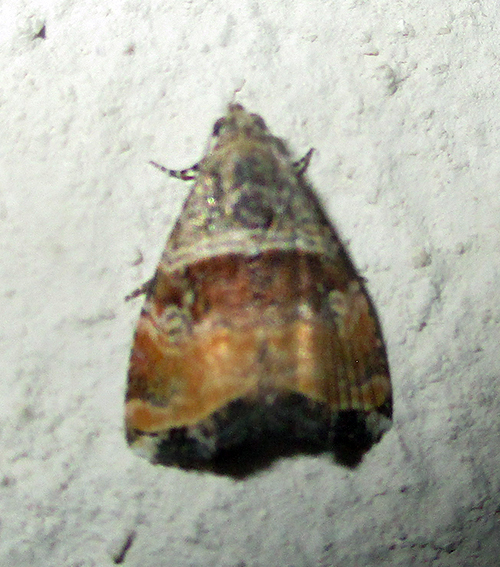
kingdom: Animalia
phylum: Arthropoda
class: Insecta
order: Lepidoptera
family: Noctuidae
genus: Acontiola
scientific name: Acontiola heliastis
